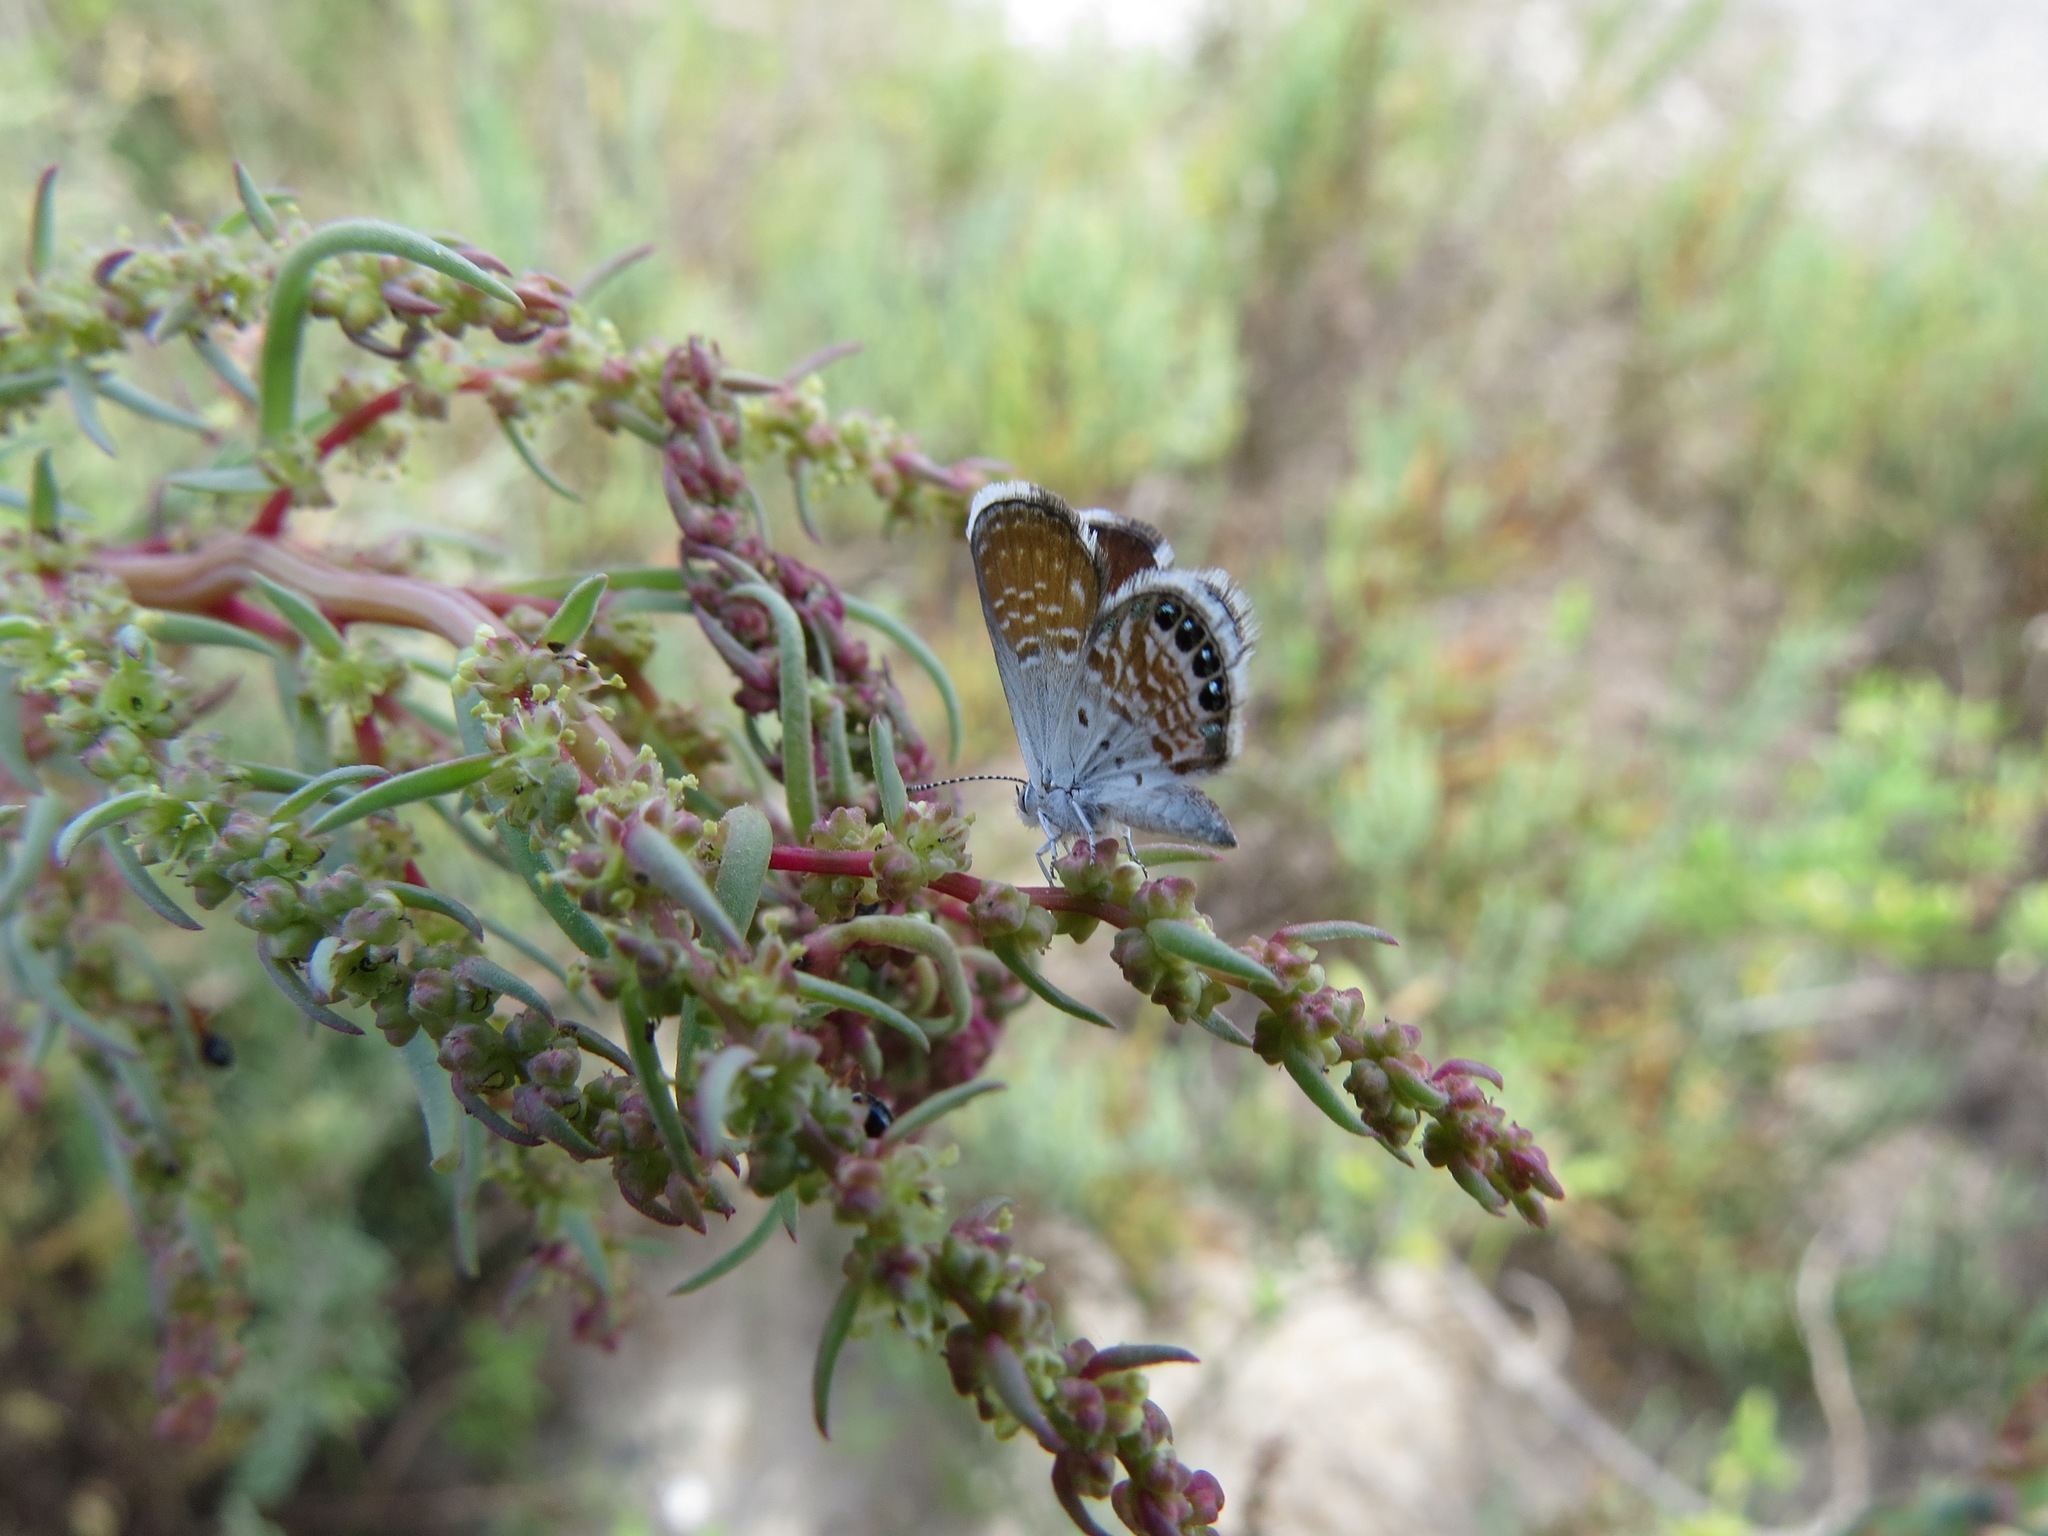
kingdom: Animalia
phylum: Arthropoda
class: Insecta
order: Lepidoptera
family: Lycaenidae
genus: Brephidium
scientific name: Brephidium exilis
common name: Pygmy blue
